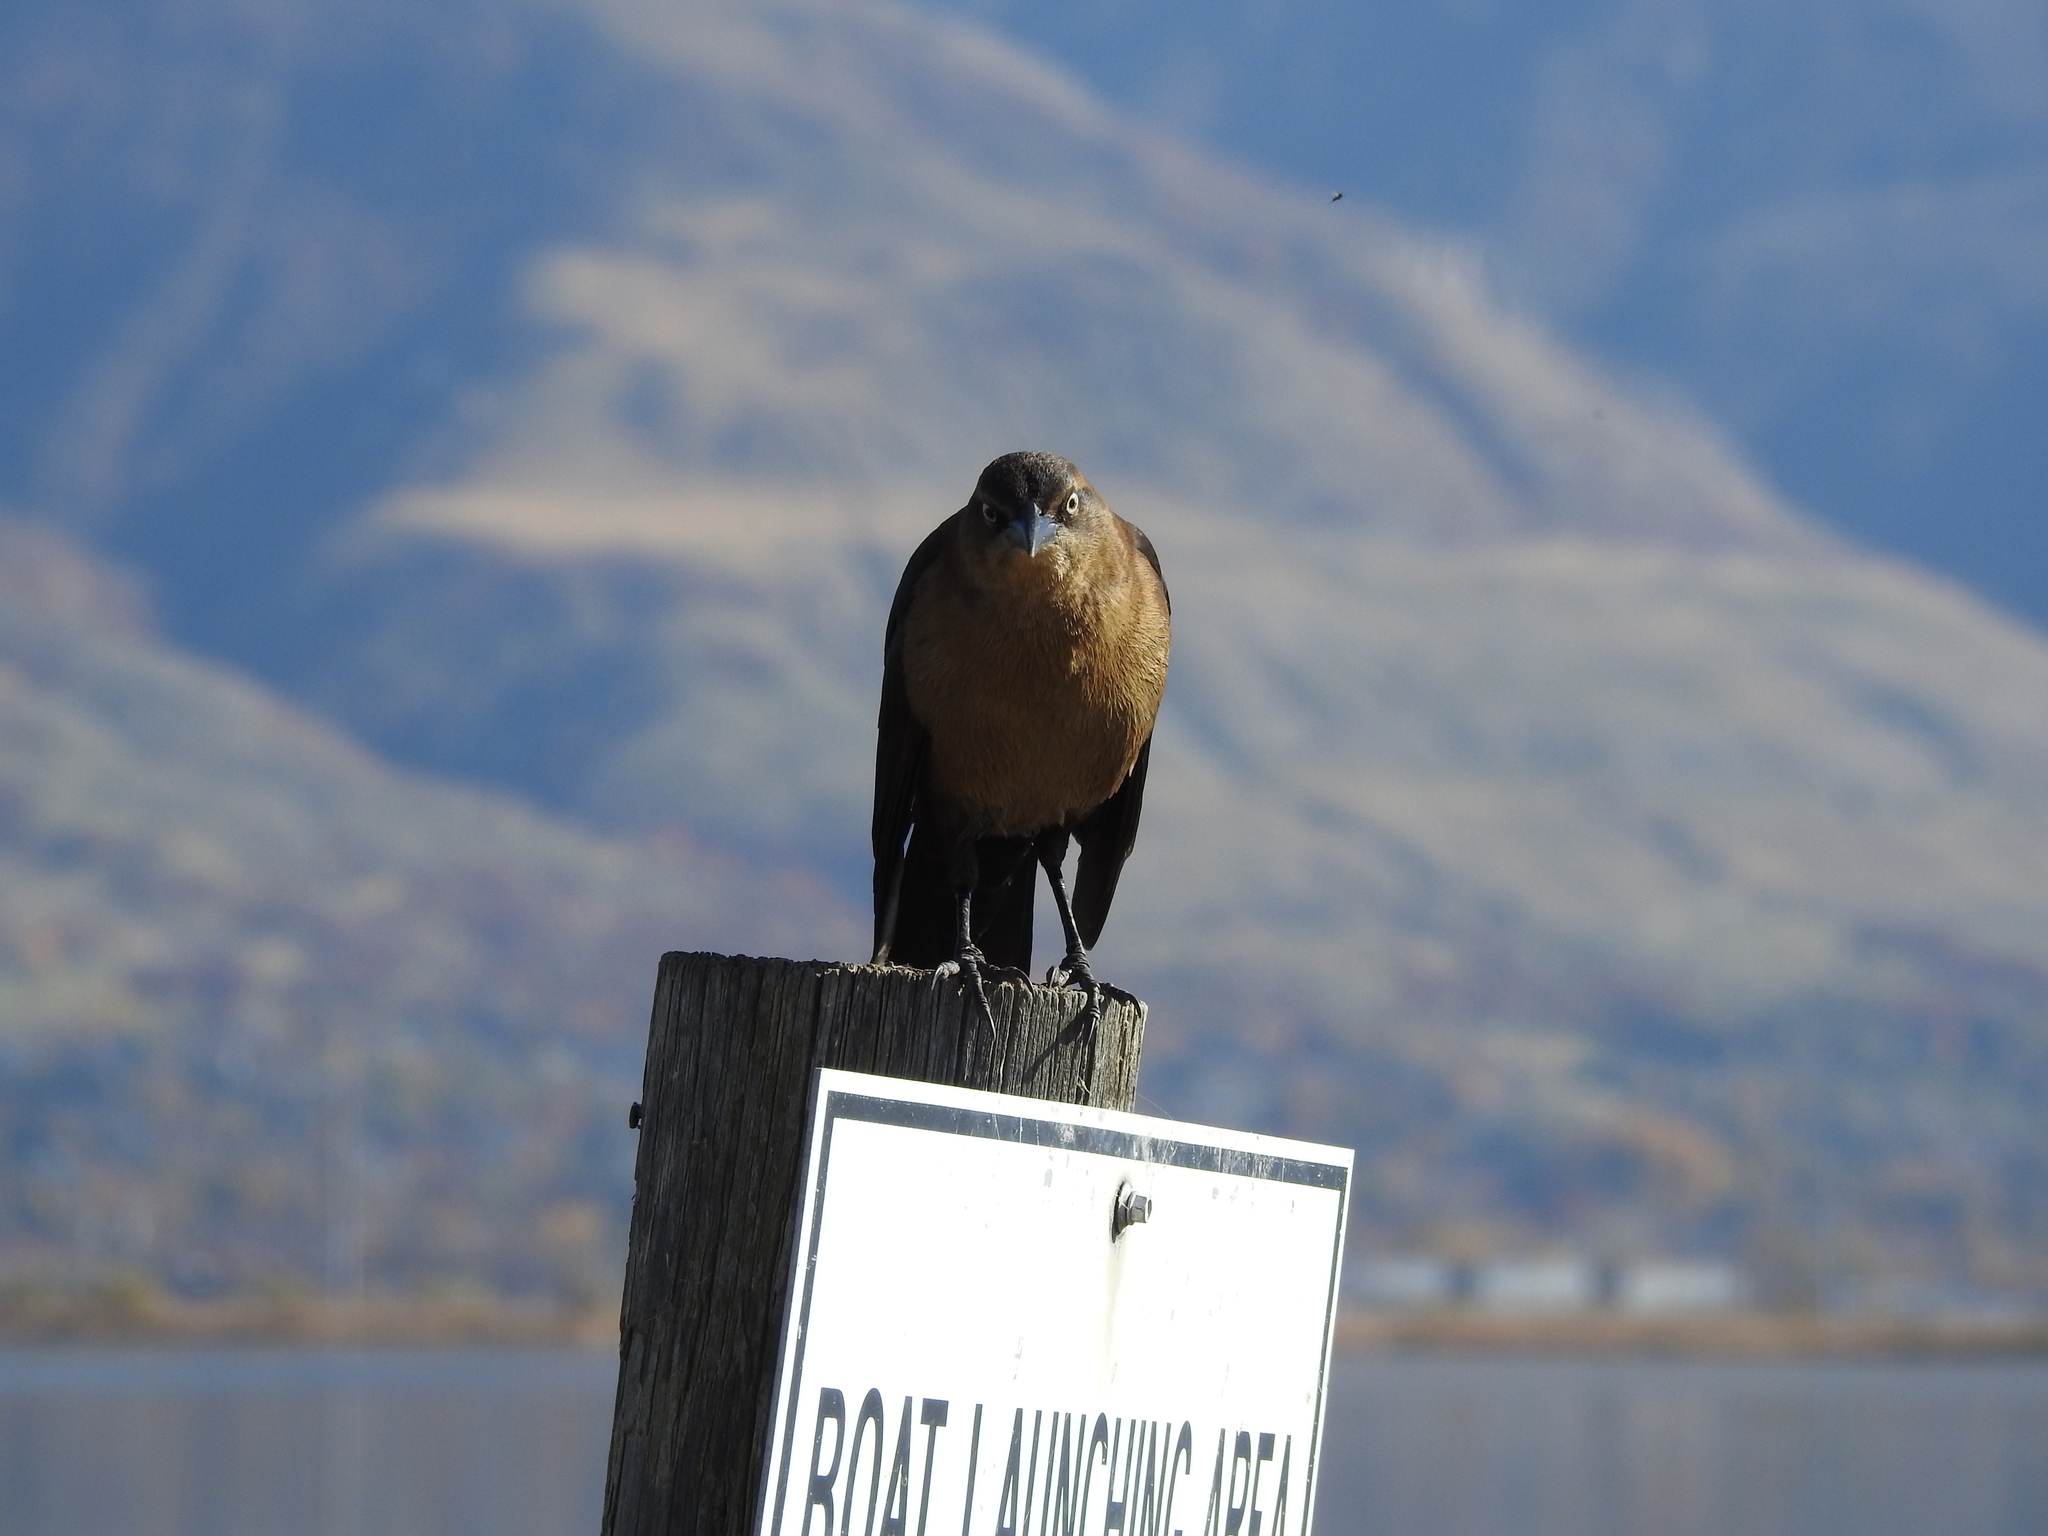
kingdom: Animalia
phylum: Chordata
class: Aves
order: Passeriformes
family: Icteridae
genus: Quiscalus
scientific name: Quiscalus mexicanus
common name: Great-tailed grackle
